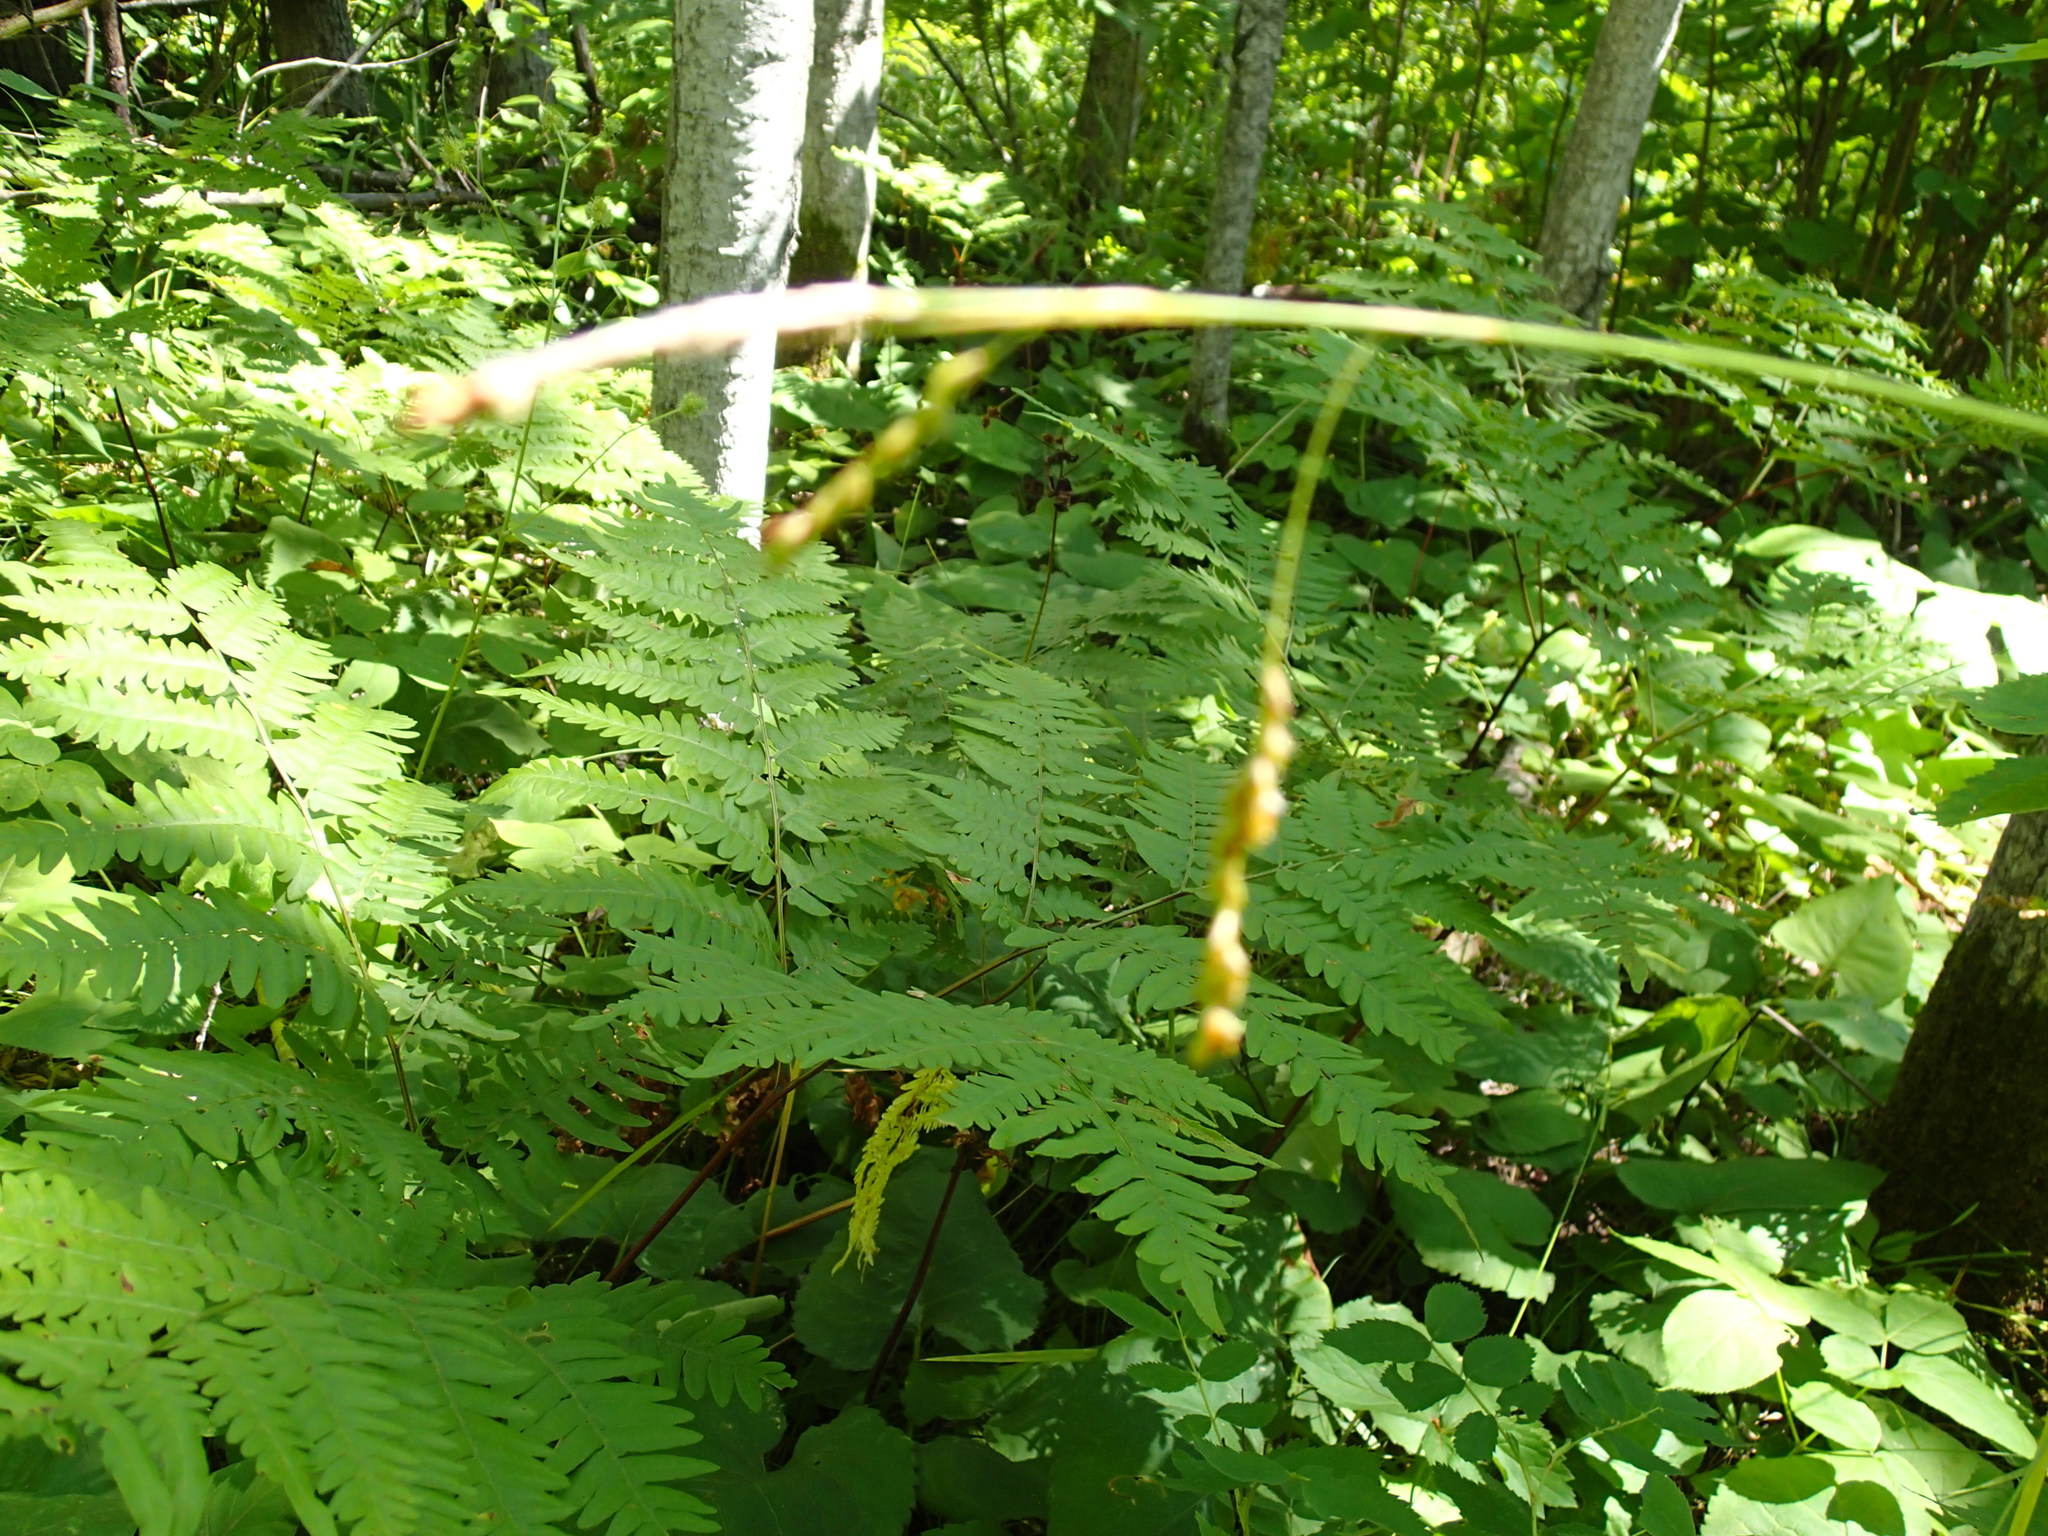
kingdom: Plantae
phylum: Tracheophyta
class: Polypodiopsida
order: Polypodiales
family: Dennstaedtiaceae
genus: Pteridium
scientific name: Pteridium aquilinum
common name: Bracken
